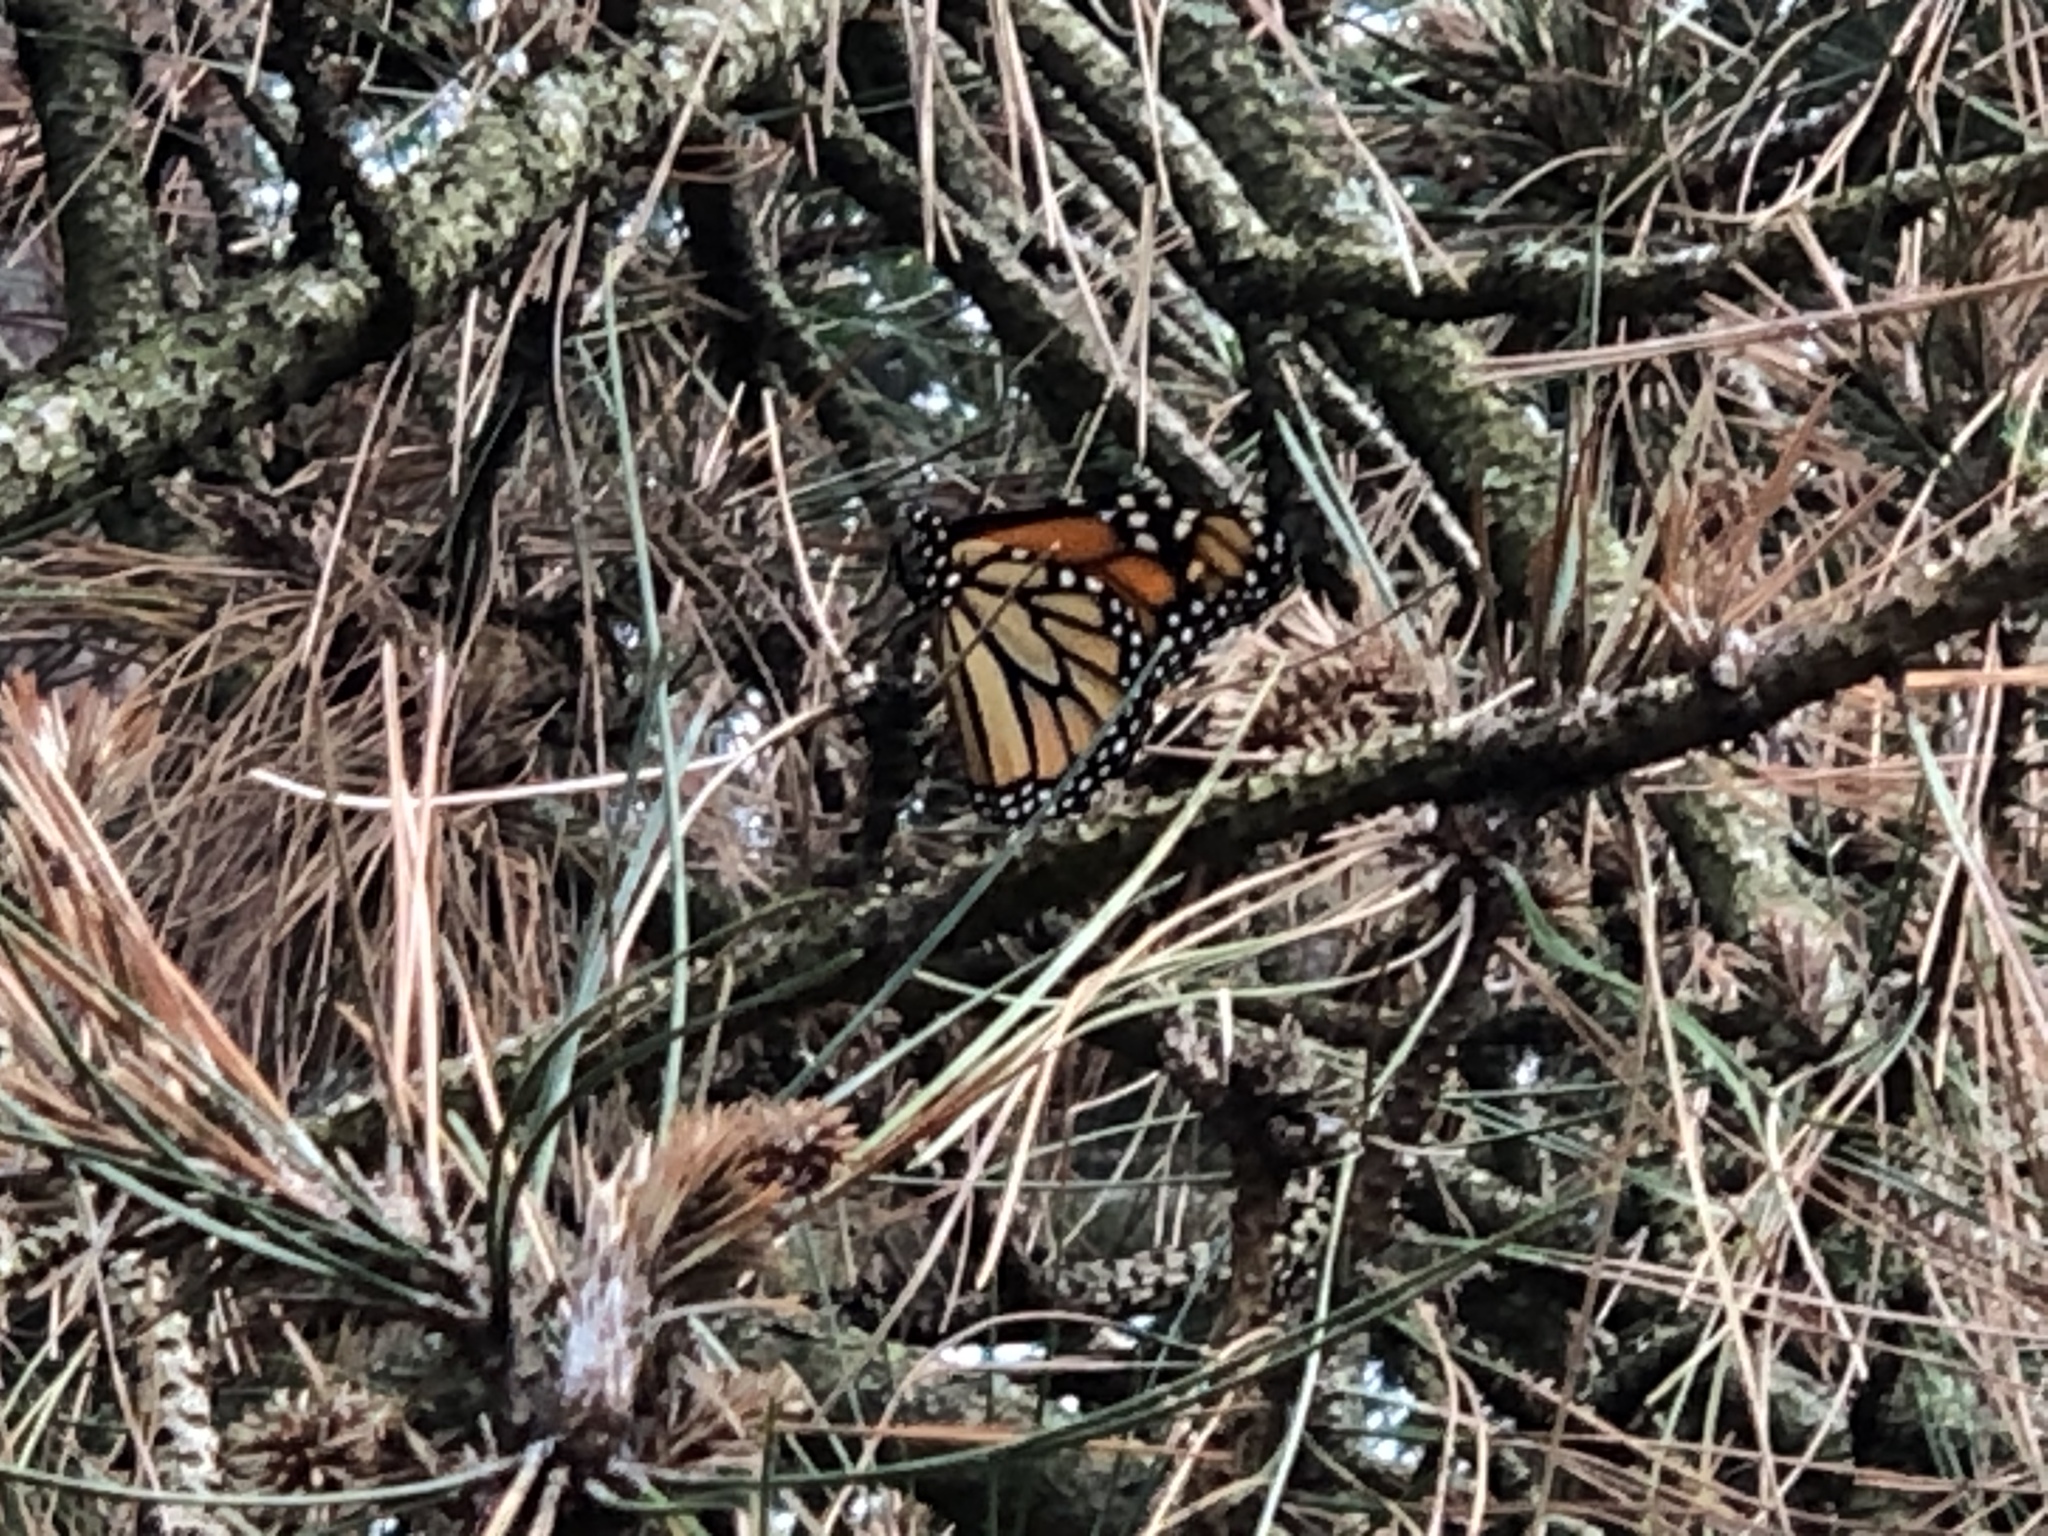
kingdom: Animalia
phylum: Arthropoda
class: Insecta
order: Lepidoptera
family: Nymphalidae
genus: Danaus
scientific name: Danaus plexippus
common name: Monarch
